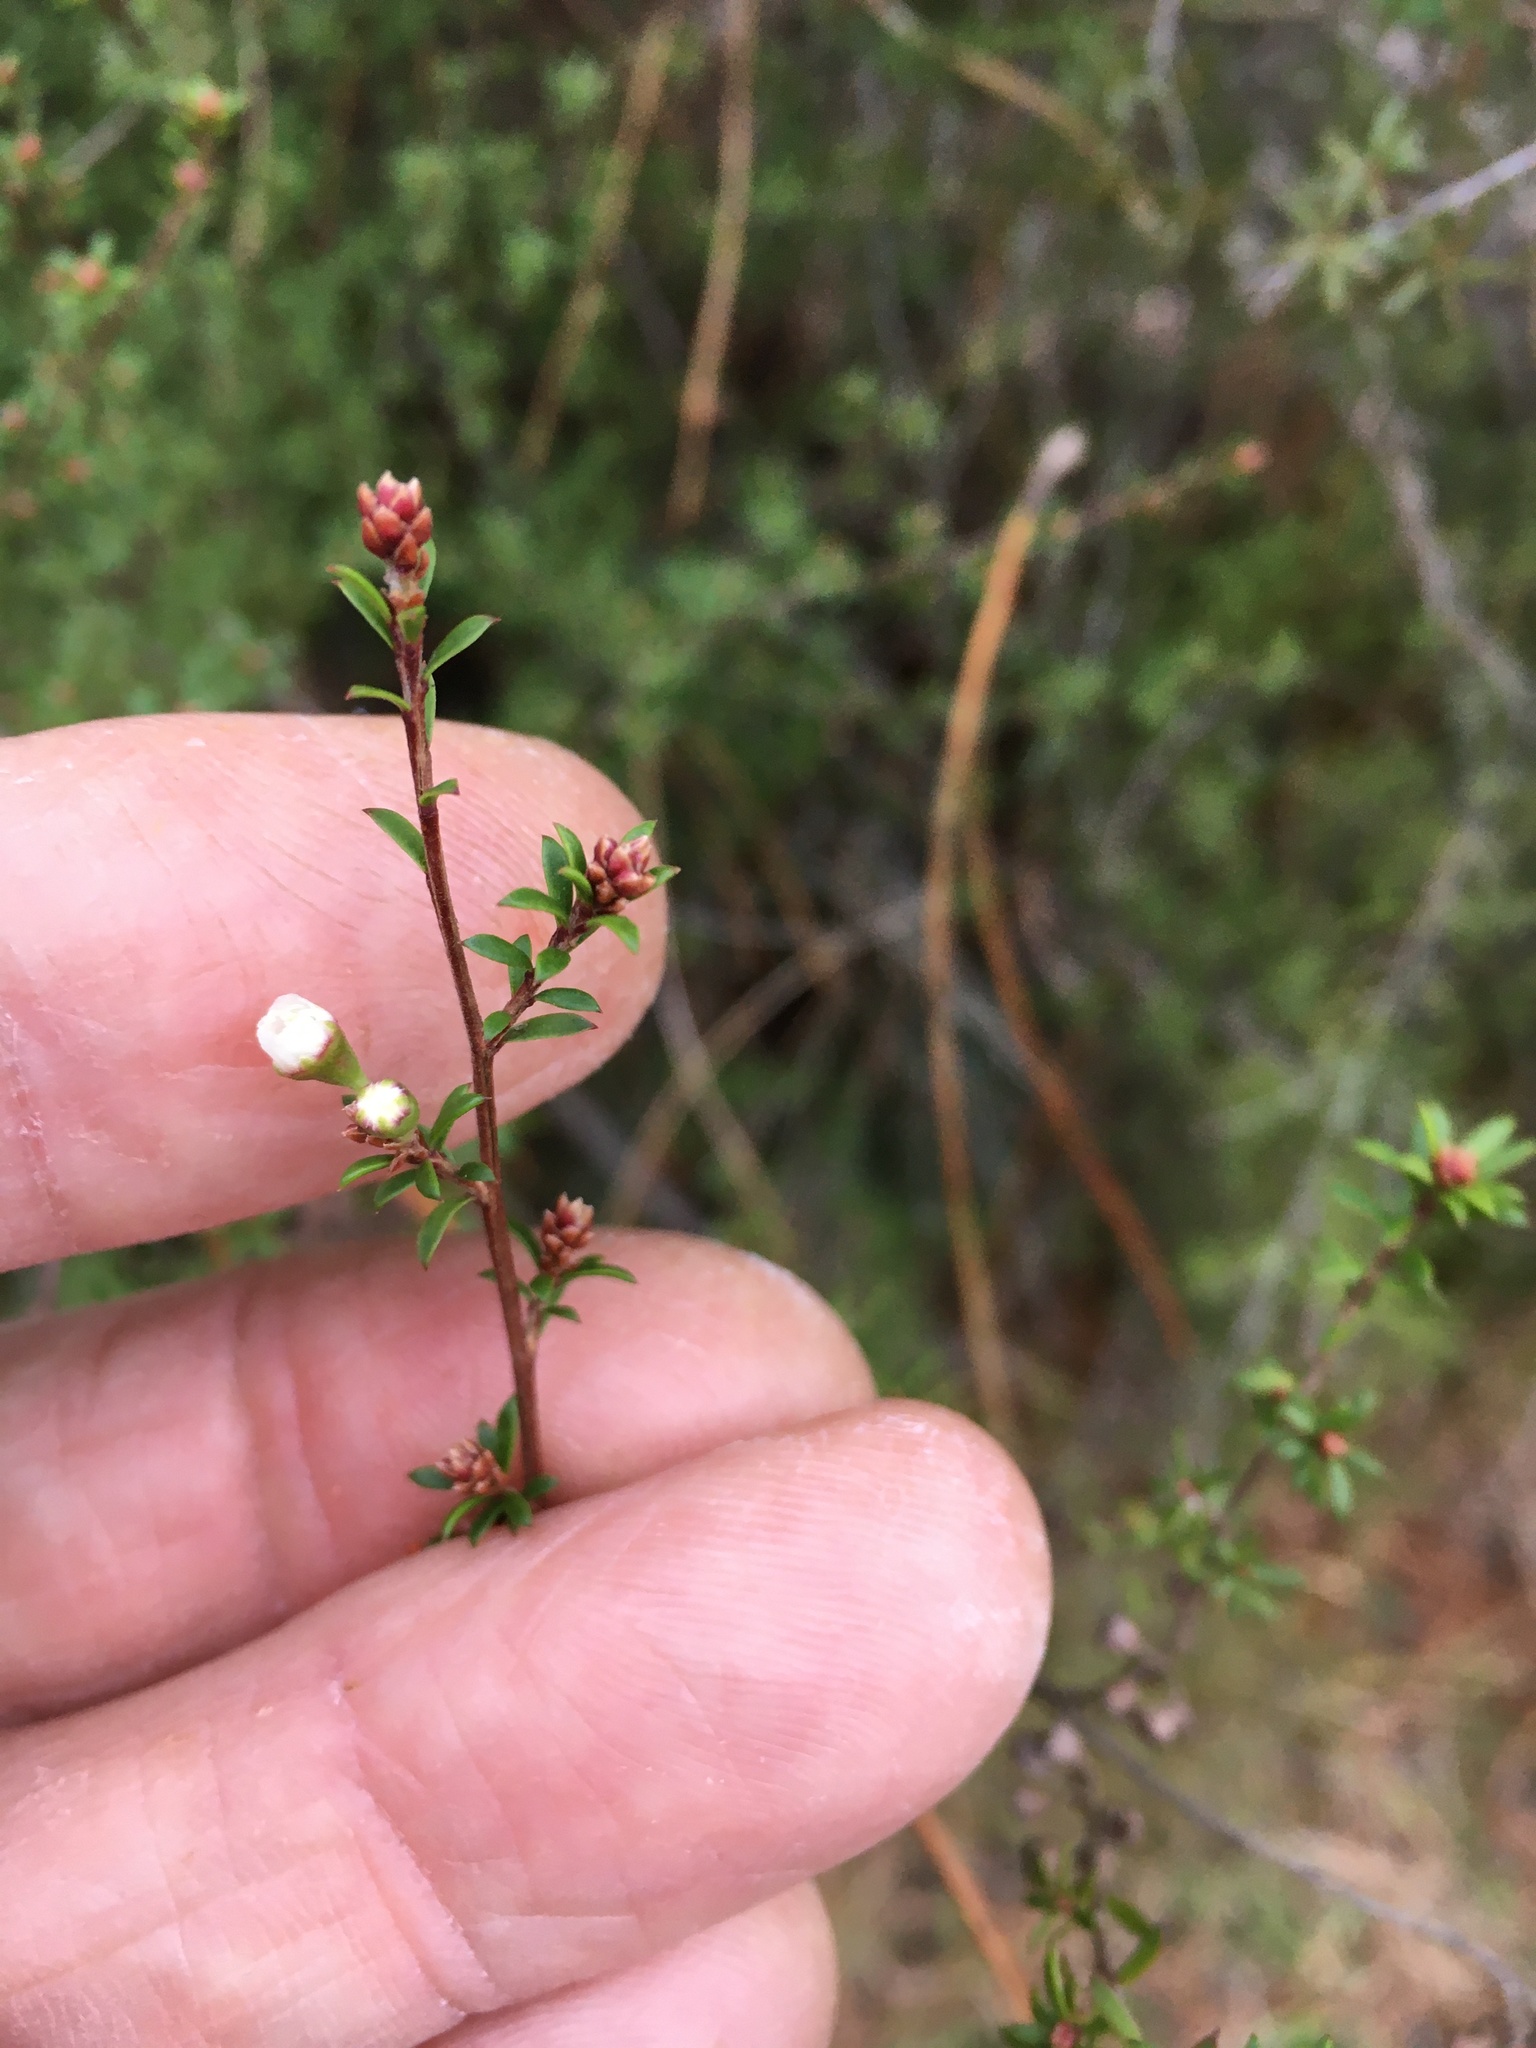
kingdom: Plantae
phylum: Tracheophyta
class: Magnoliopsida
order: Myrtales
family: Myrtaceae
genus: Kunzea
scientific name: Kunzea tenuicaulis
